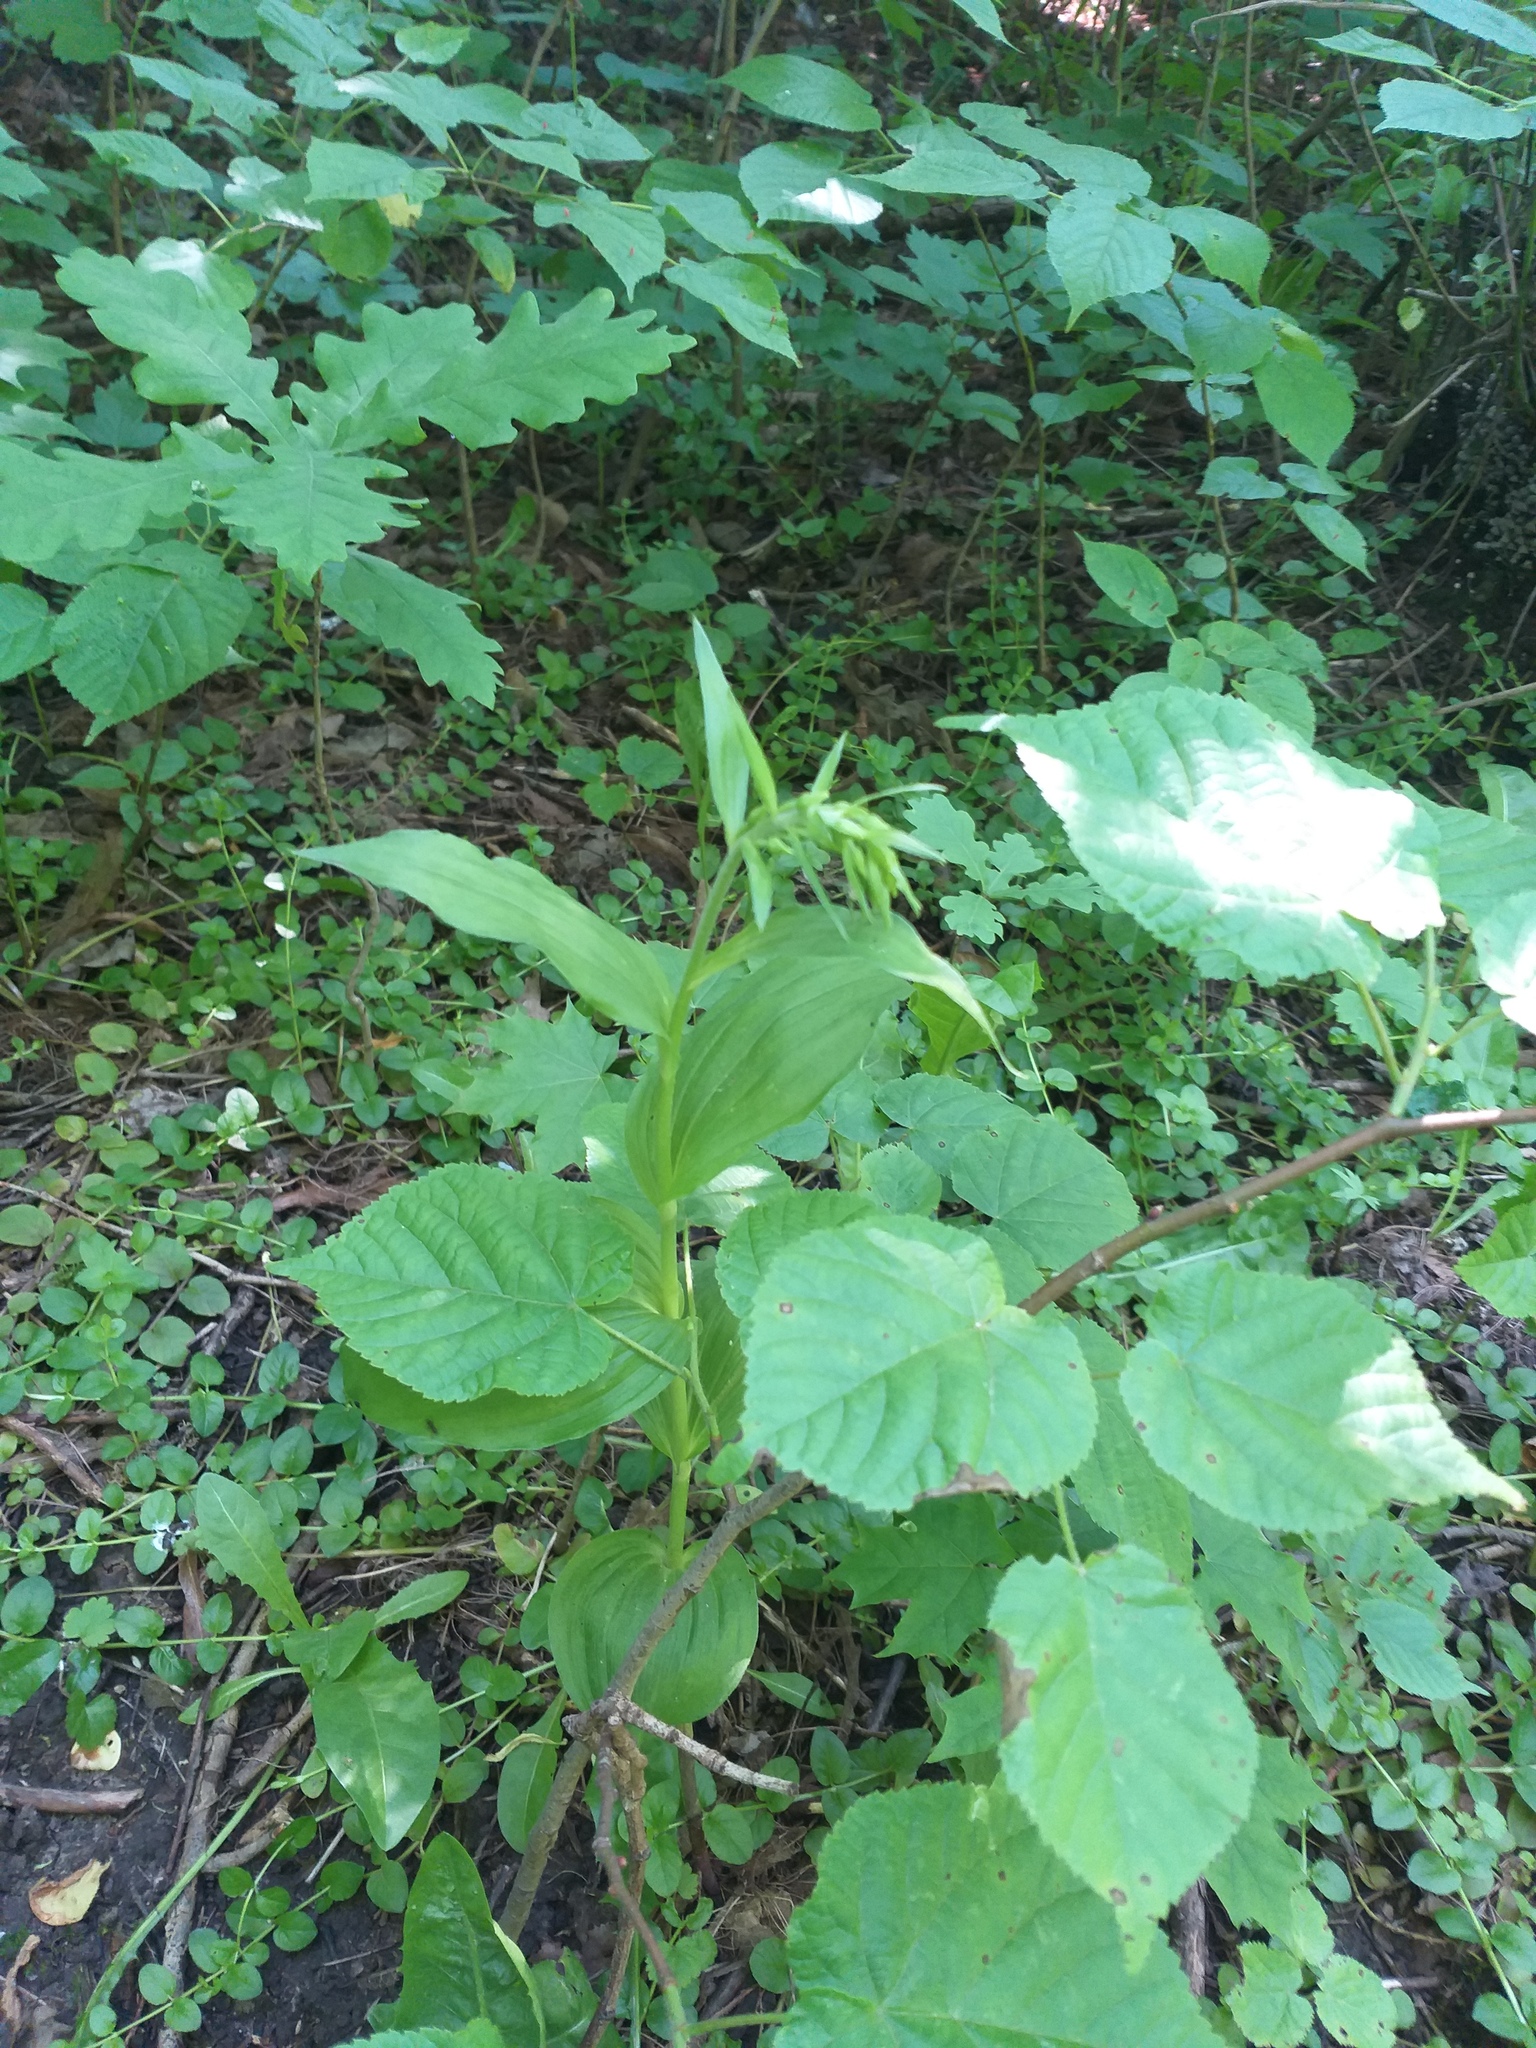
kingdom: Plantae
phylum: Tracheophyta
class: Liliopsida
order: Asparagales
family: Orchidaceae
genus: Epipactis
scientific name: Epipactis helleborine
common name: Broad-leaved helleborine
